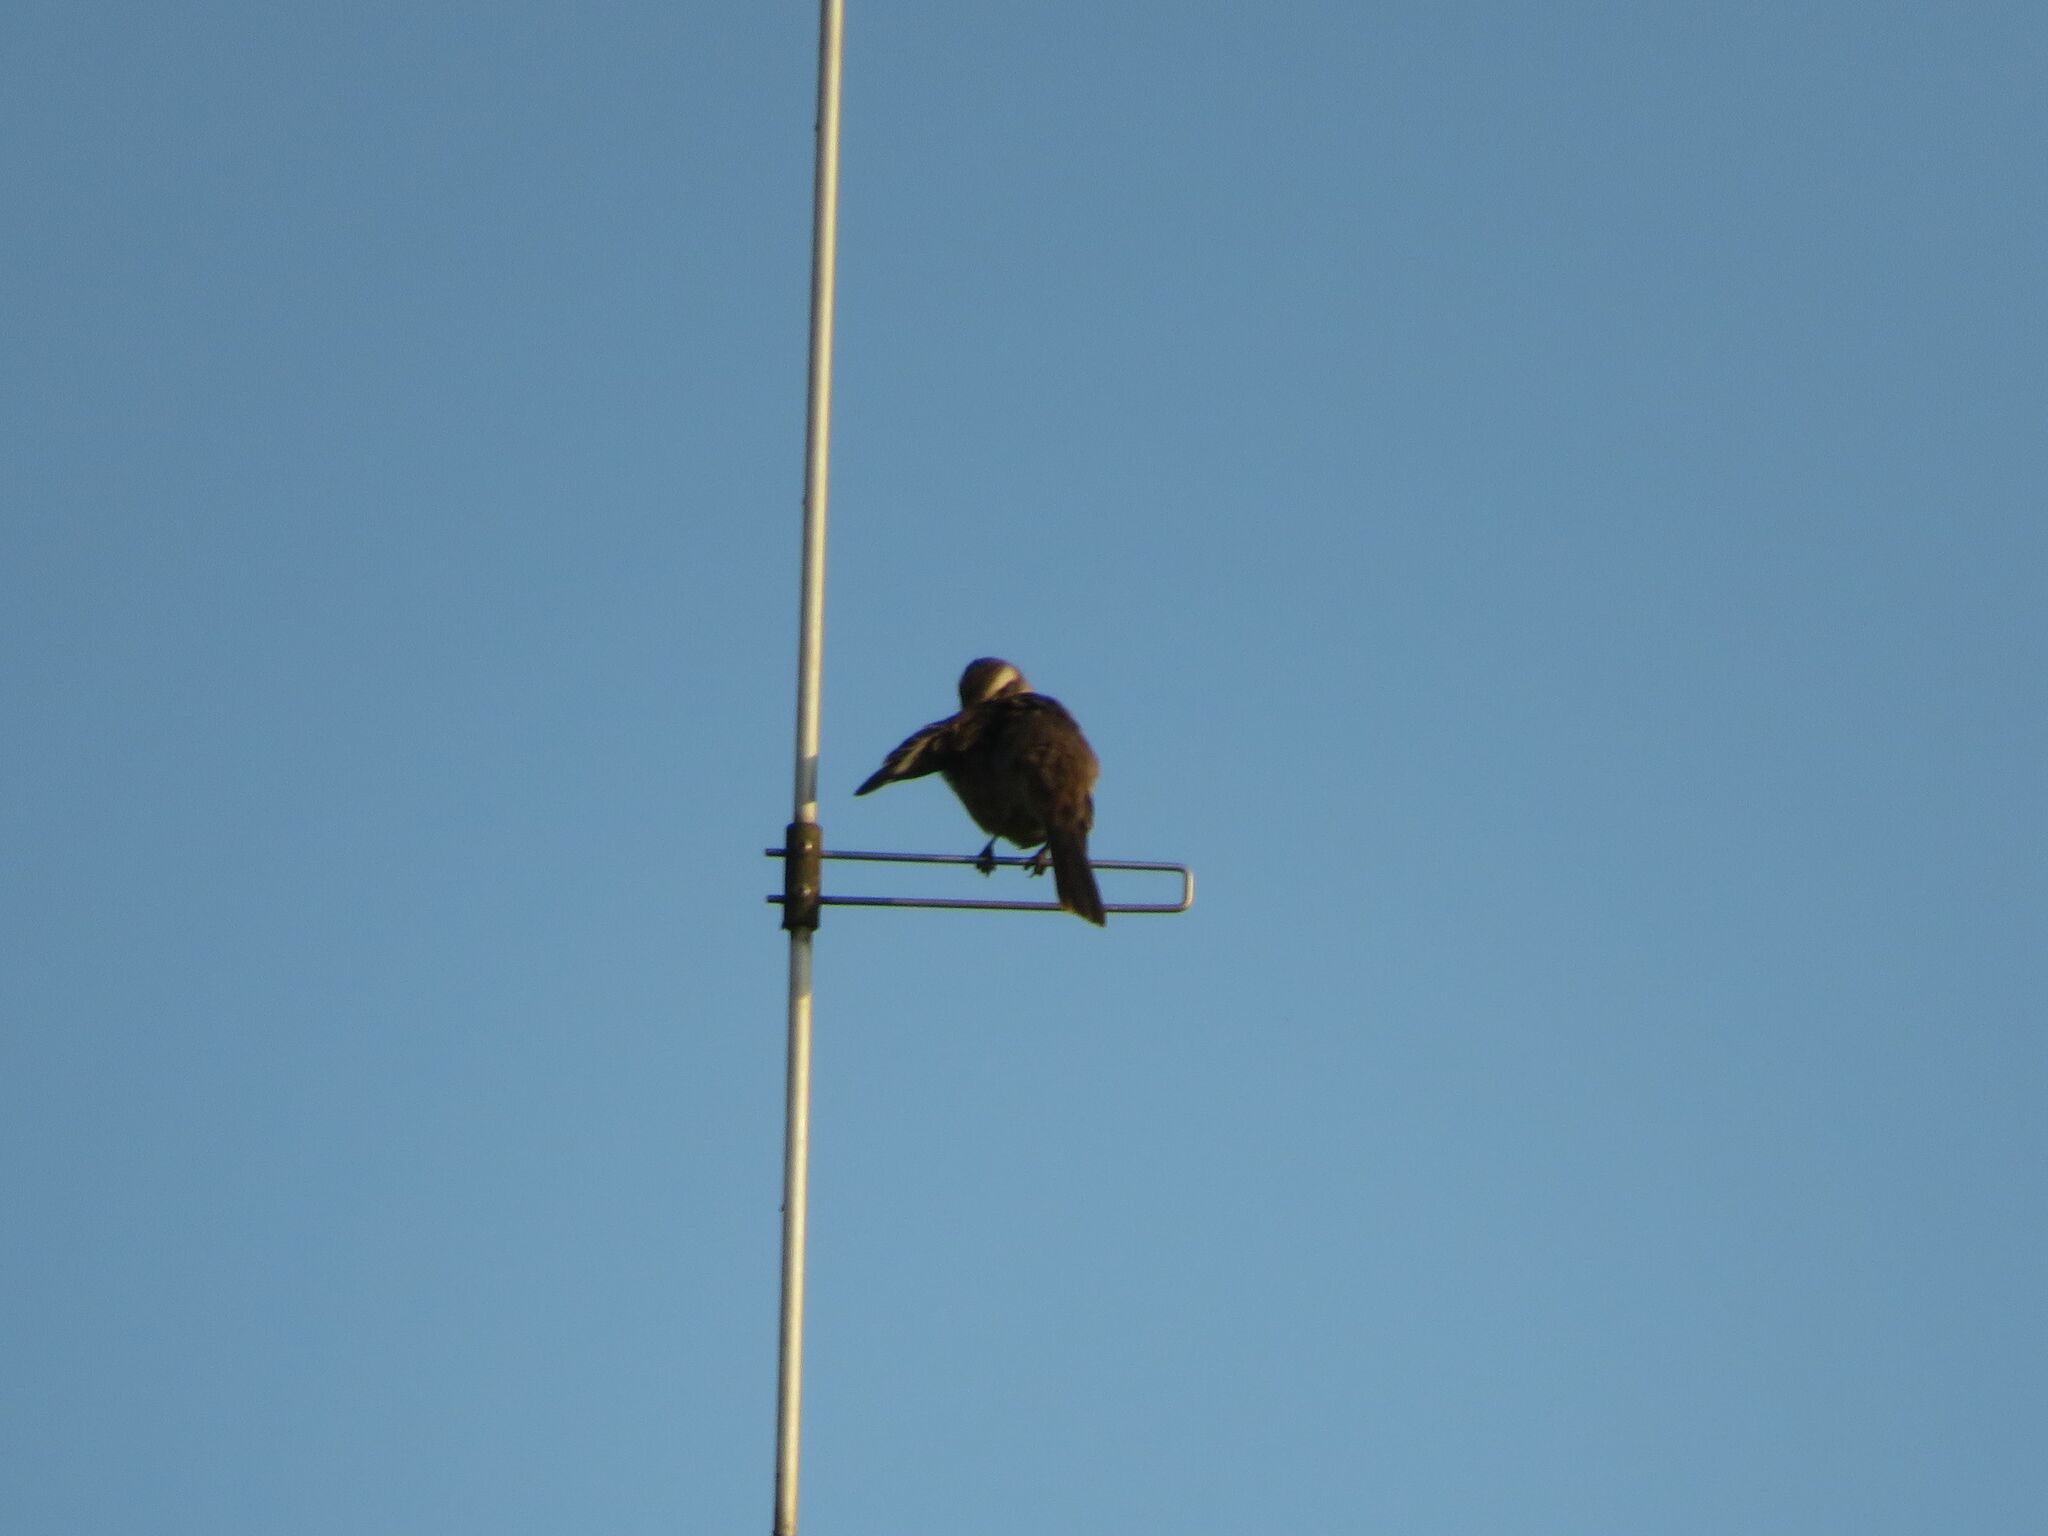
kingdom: Animalia
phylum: Chordata
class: Aves
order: Passeriformes
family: Mimidae
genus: Mimus
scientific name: Mimus saturninus
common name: Chalk-browed mockingbird
